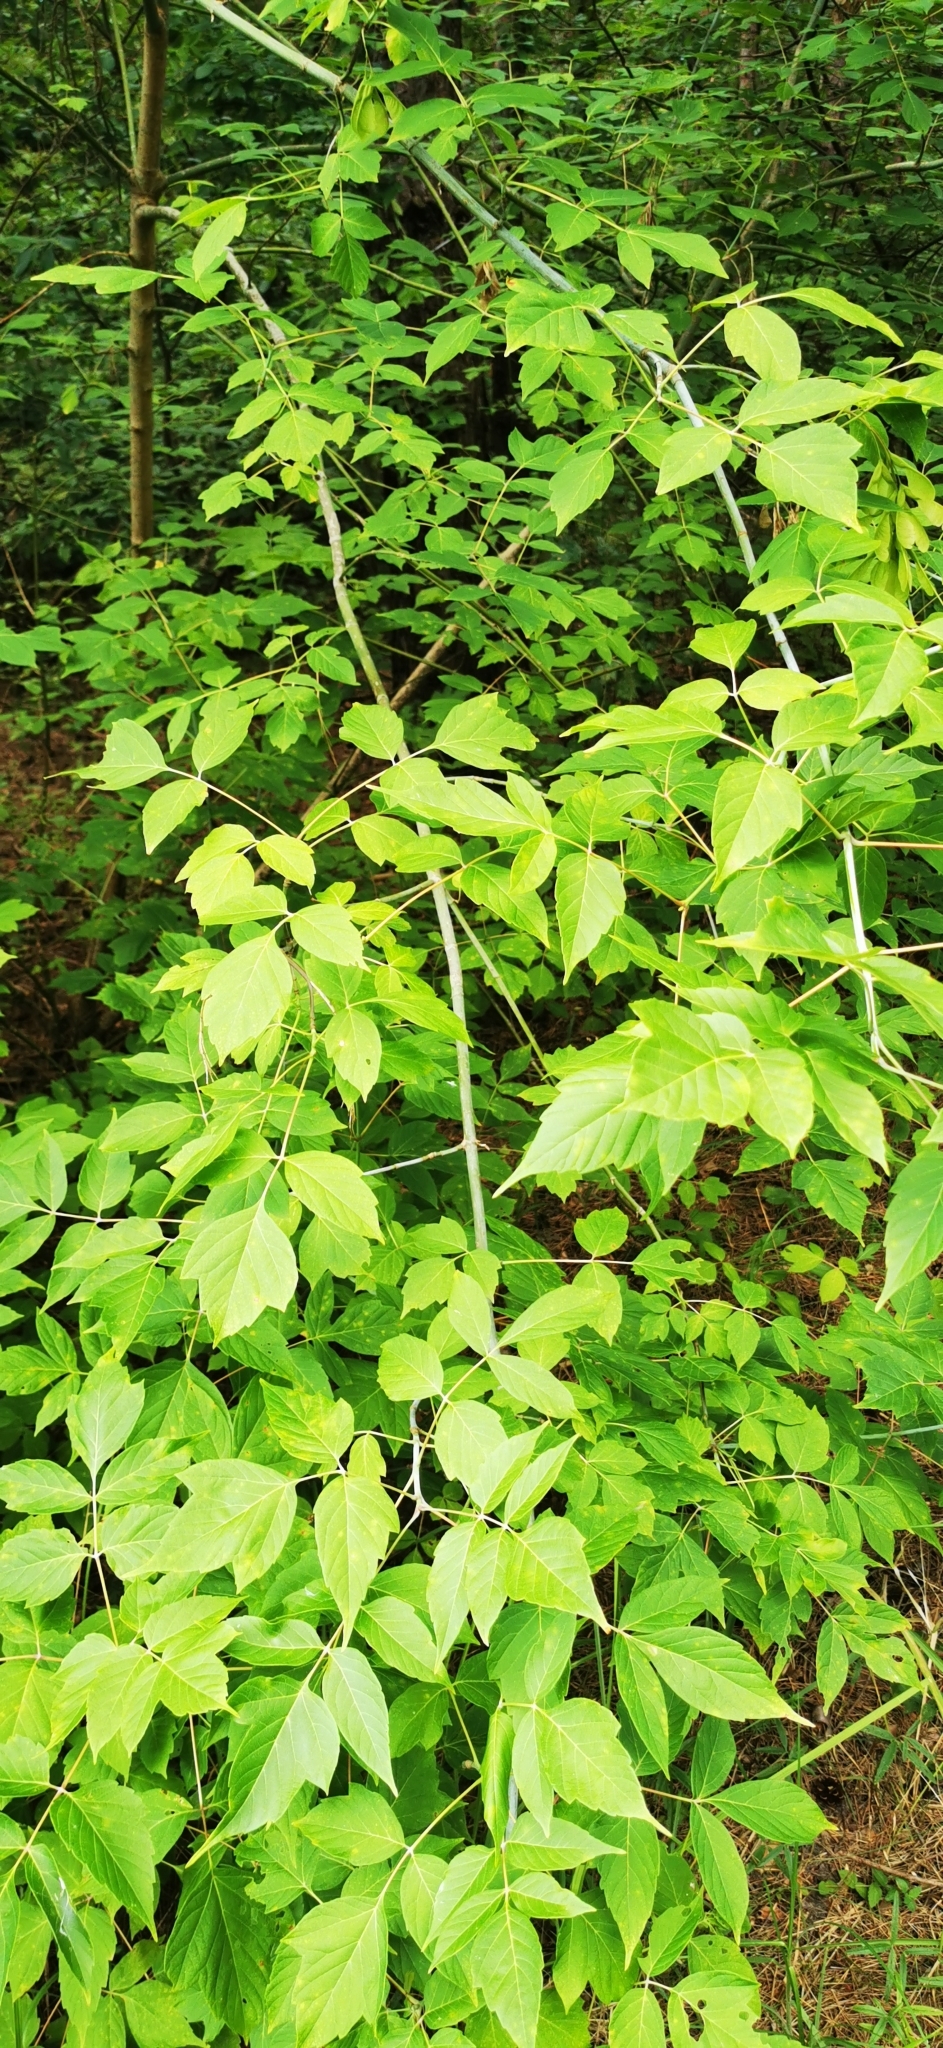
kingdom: Plantae
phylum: Tracheophyta
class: Magnoliopsida
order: Sapindales
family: Sapindaceae
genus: Acer
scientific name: Acer negundo
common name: Ashleaf maple
